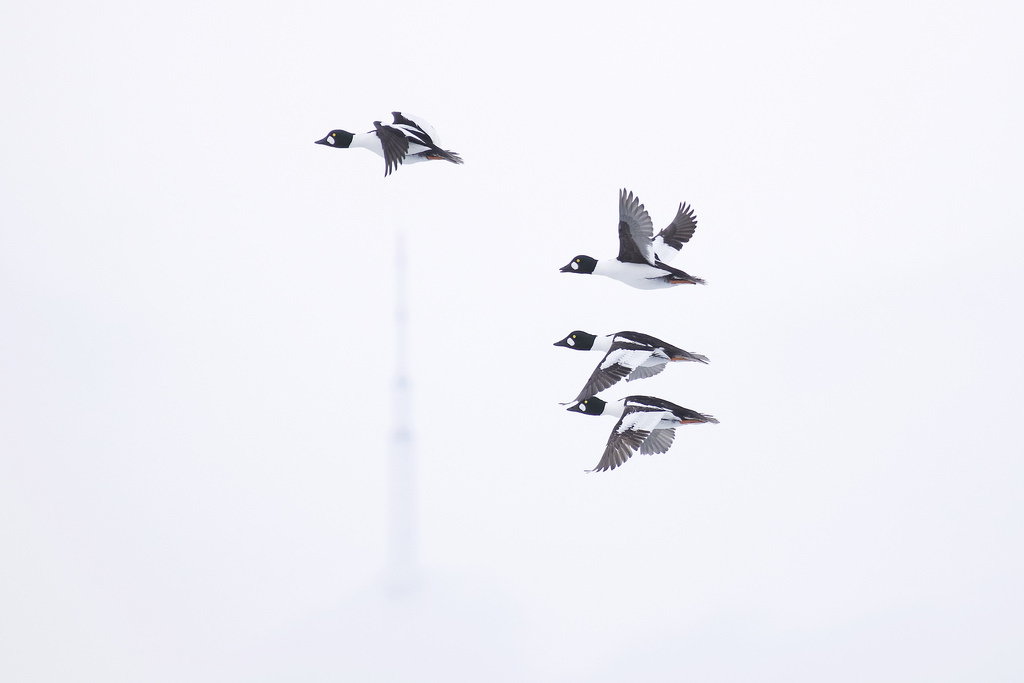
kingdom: Animalia
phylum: Chordata
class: Aves
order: Anseriformes
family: Anatidae
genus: Bucephala
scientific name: Bucephala clangula
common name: Common goldeneye
